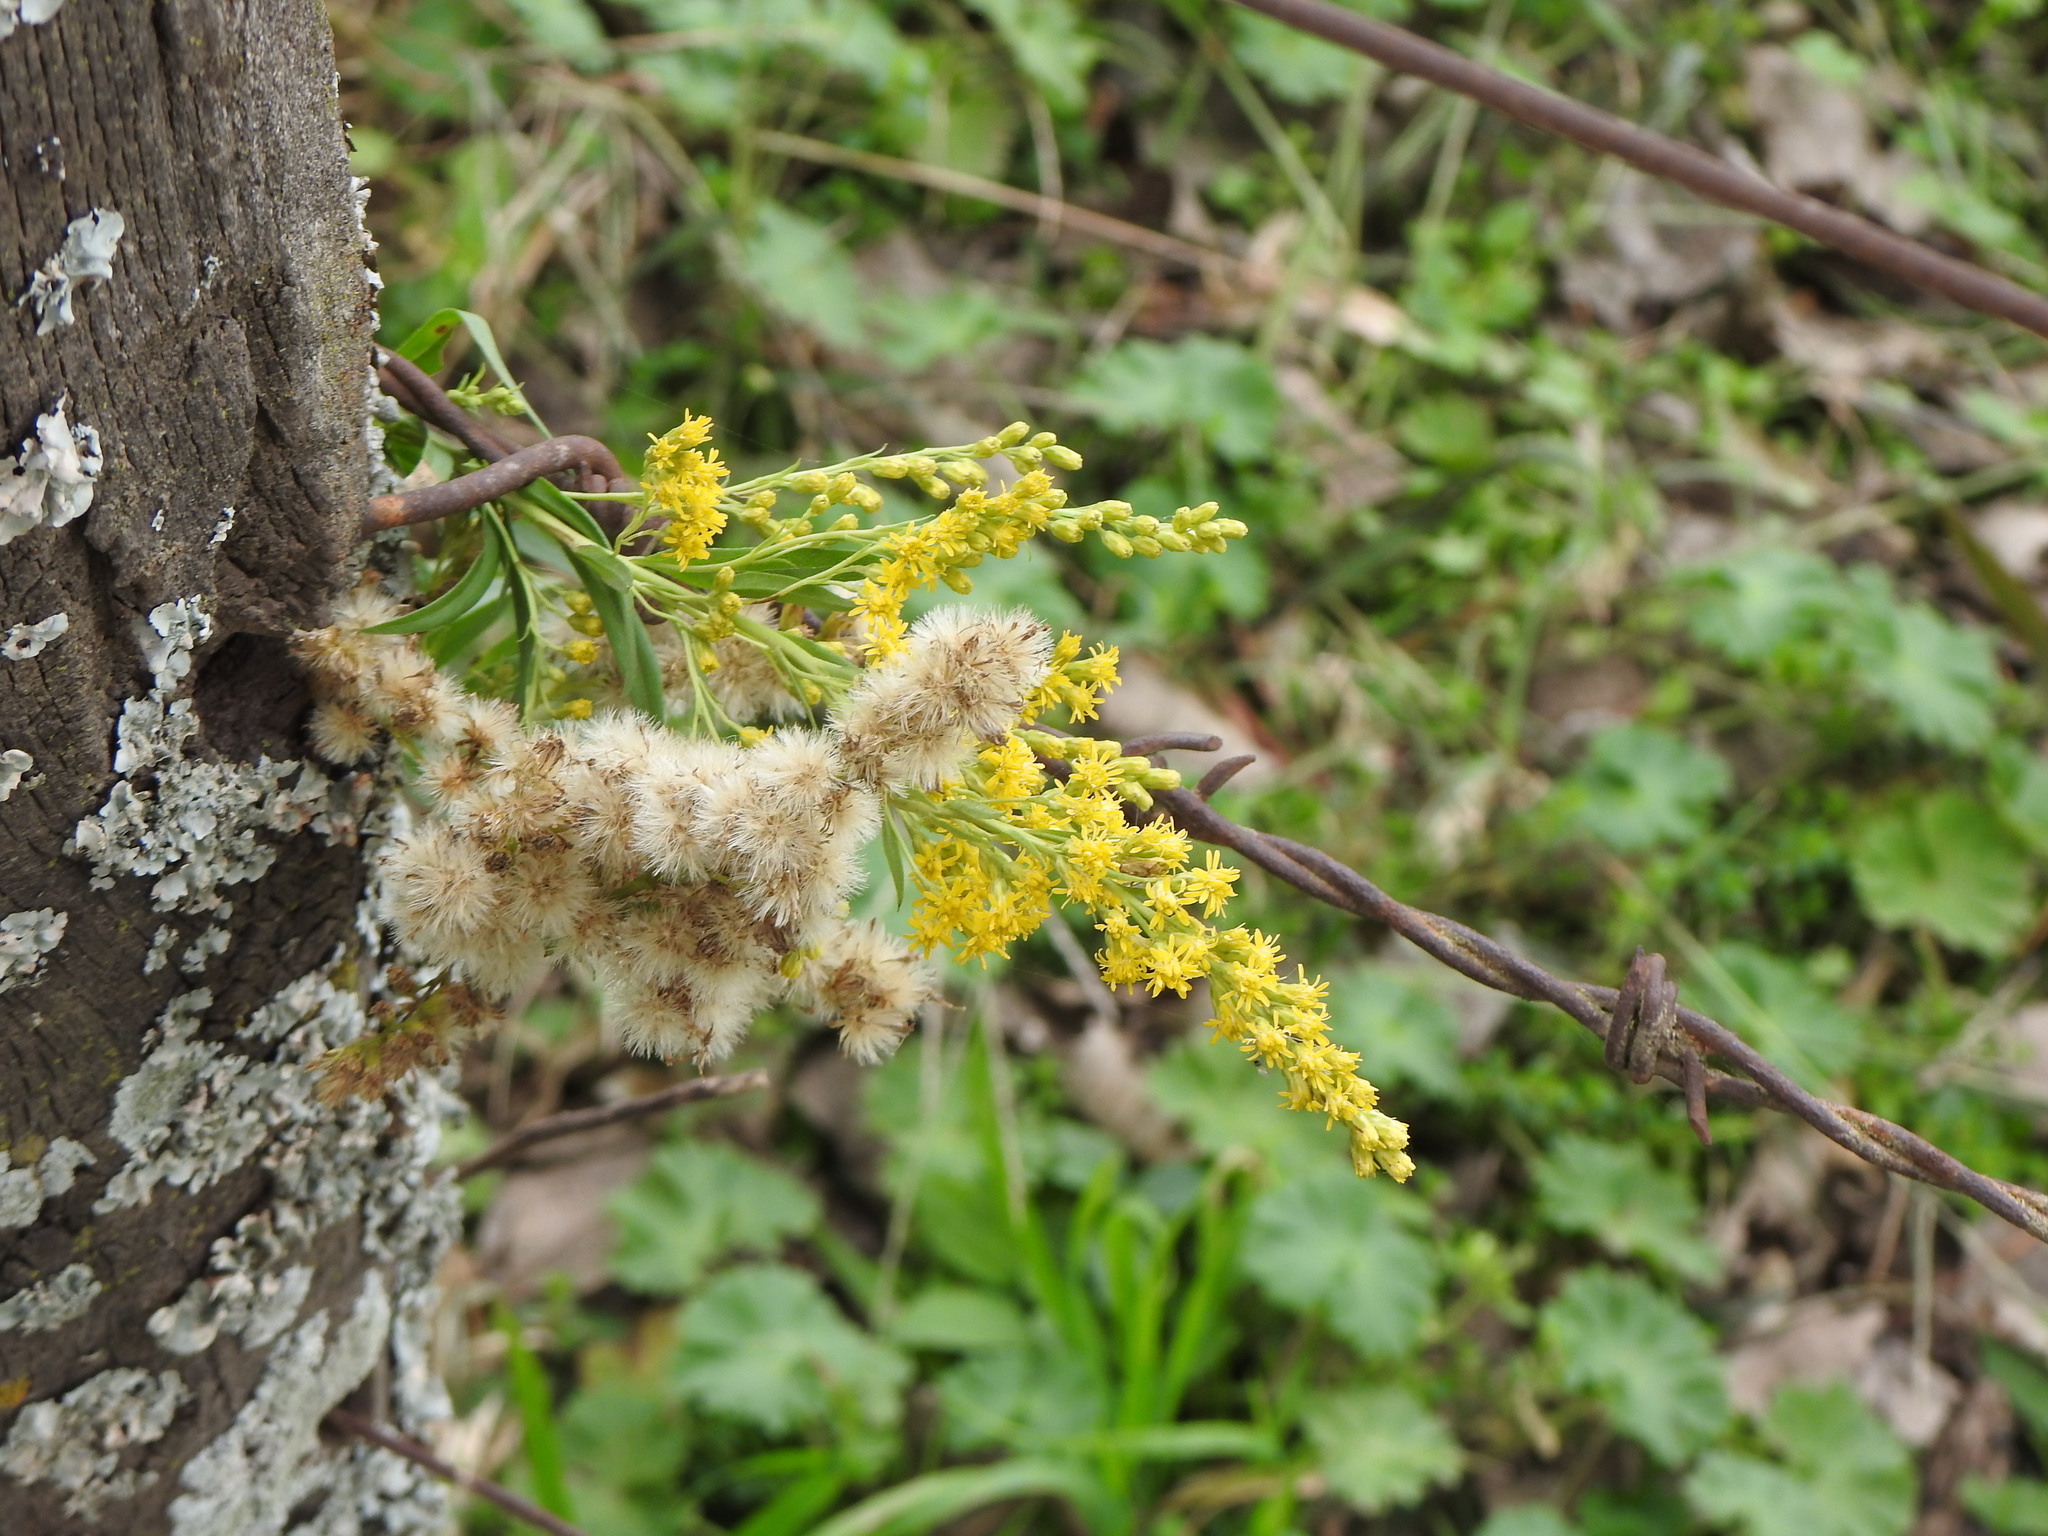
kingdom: Plantae
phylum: Tracheophyta
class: Magnoliopsida
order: Asterales
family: Asteraceae
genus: Solidago
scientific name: Solidago chilensis
